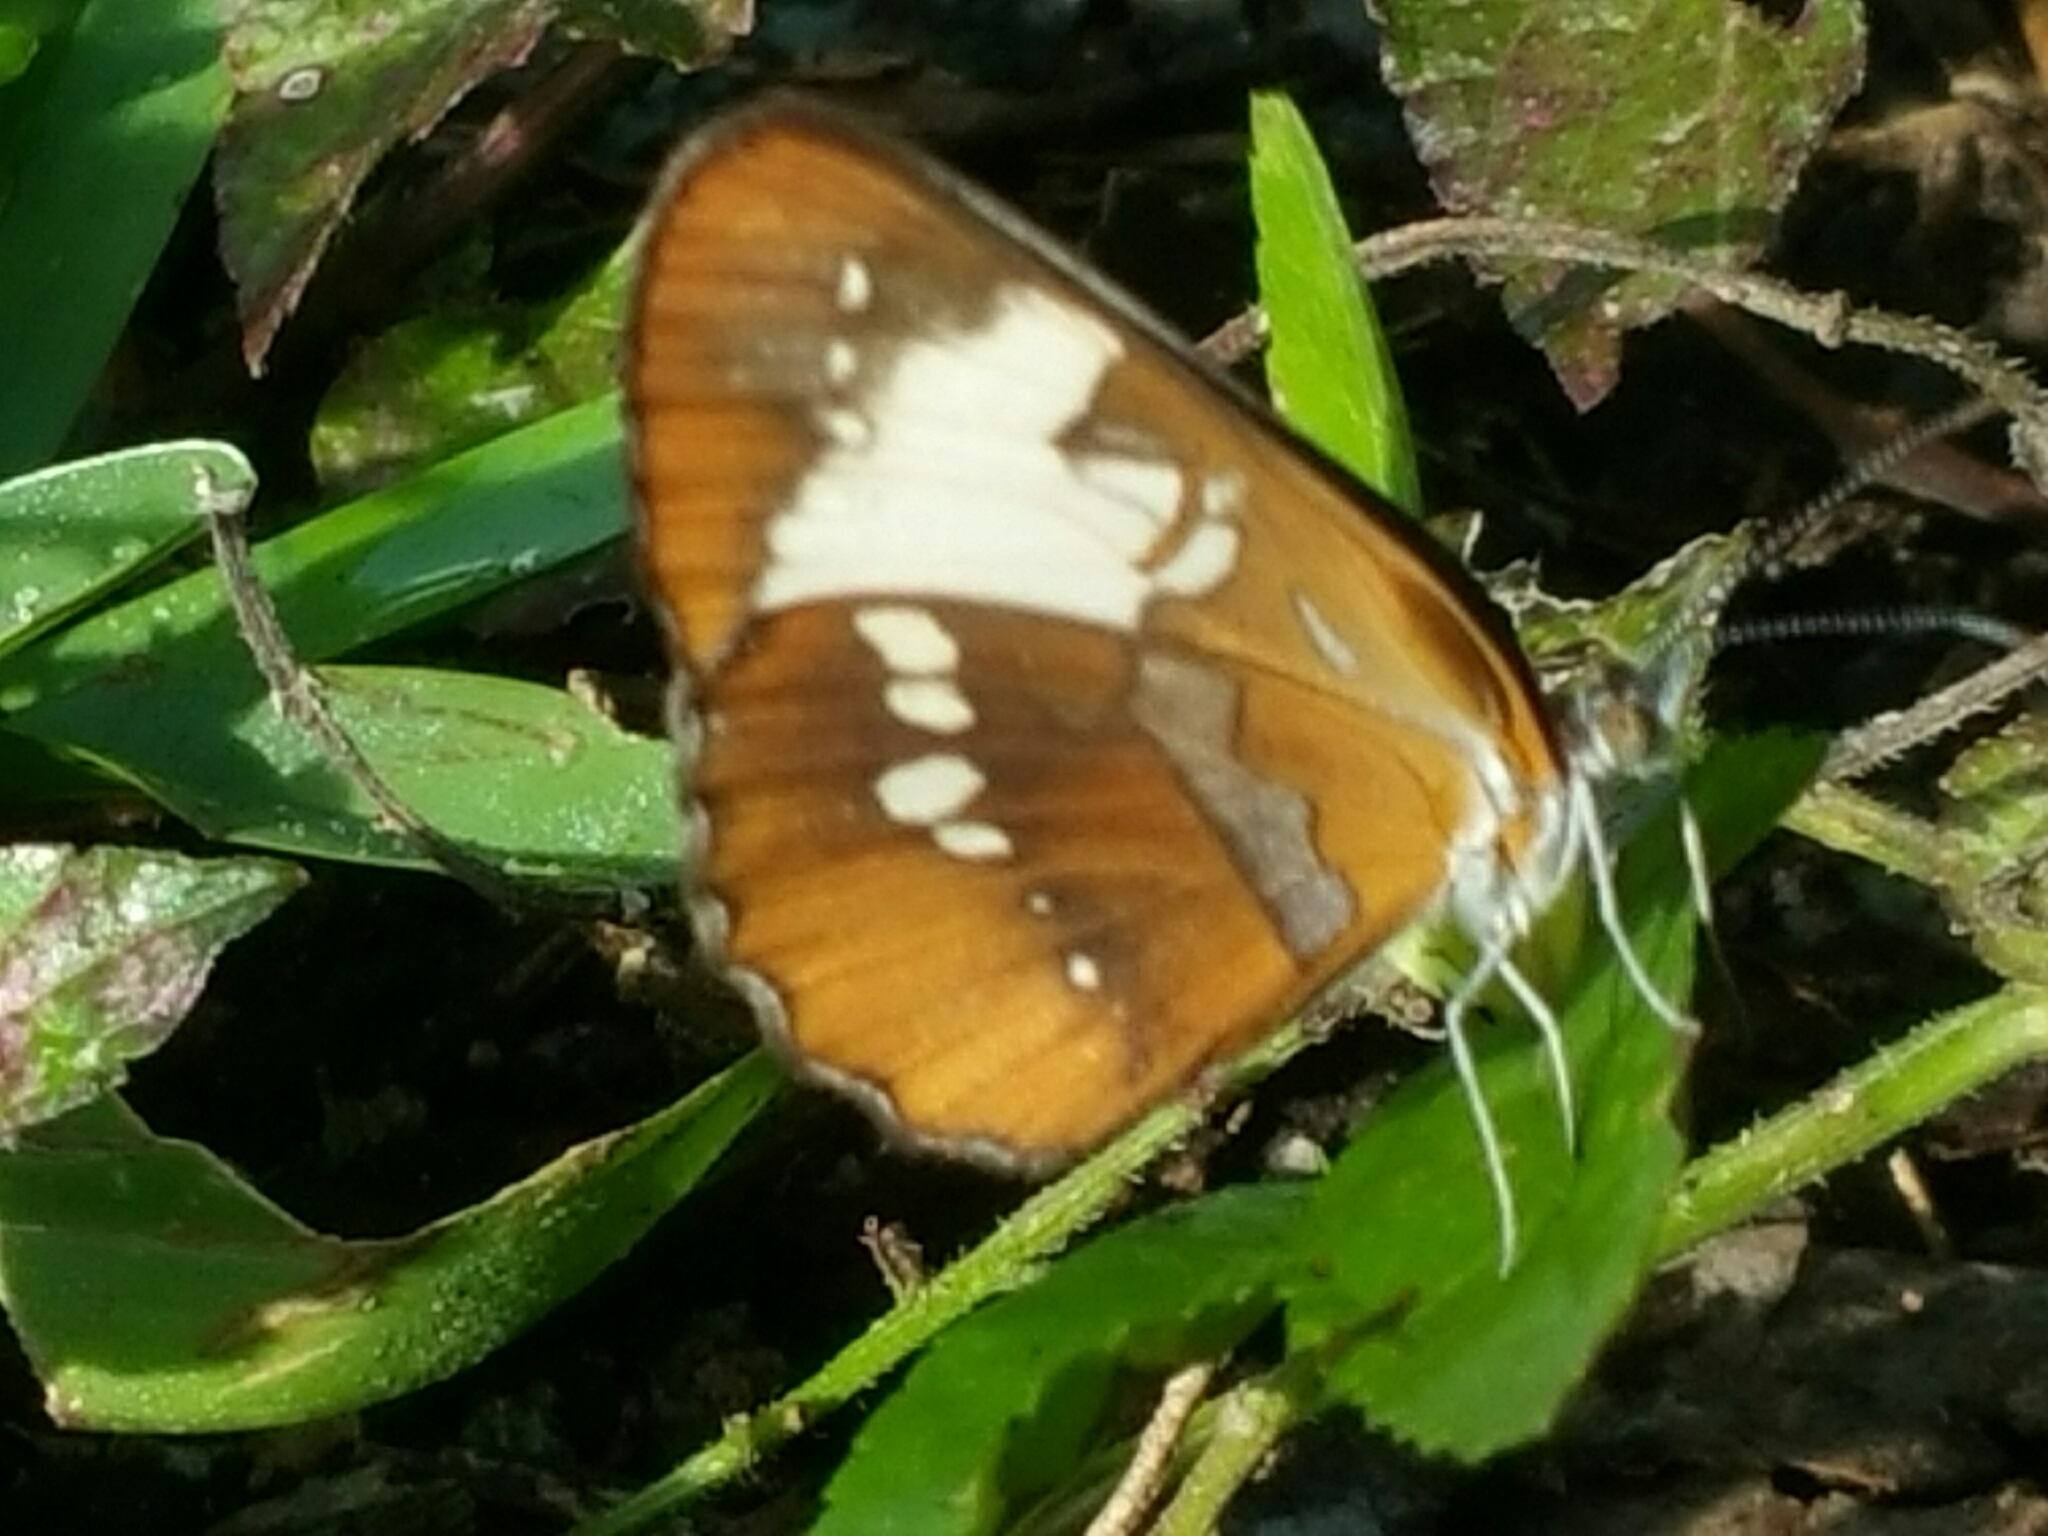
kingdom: Animalia
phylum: Arthropoda
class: Insecta
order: Lepidoptera
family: Nymphalidae
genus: Mestra
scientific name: Mestra amymone
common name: Common mestra
